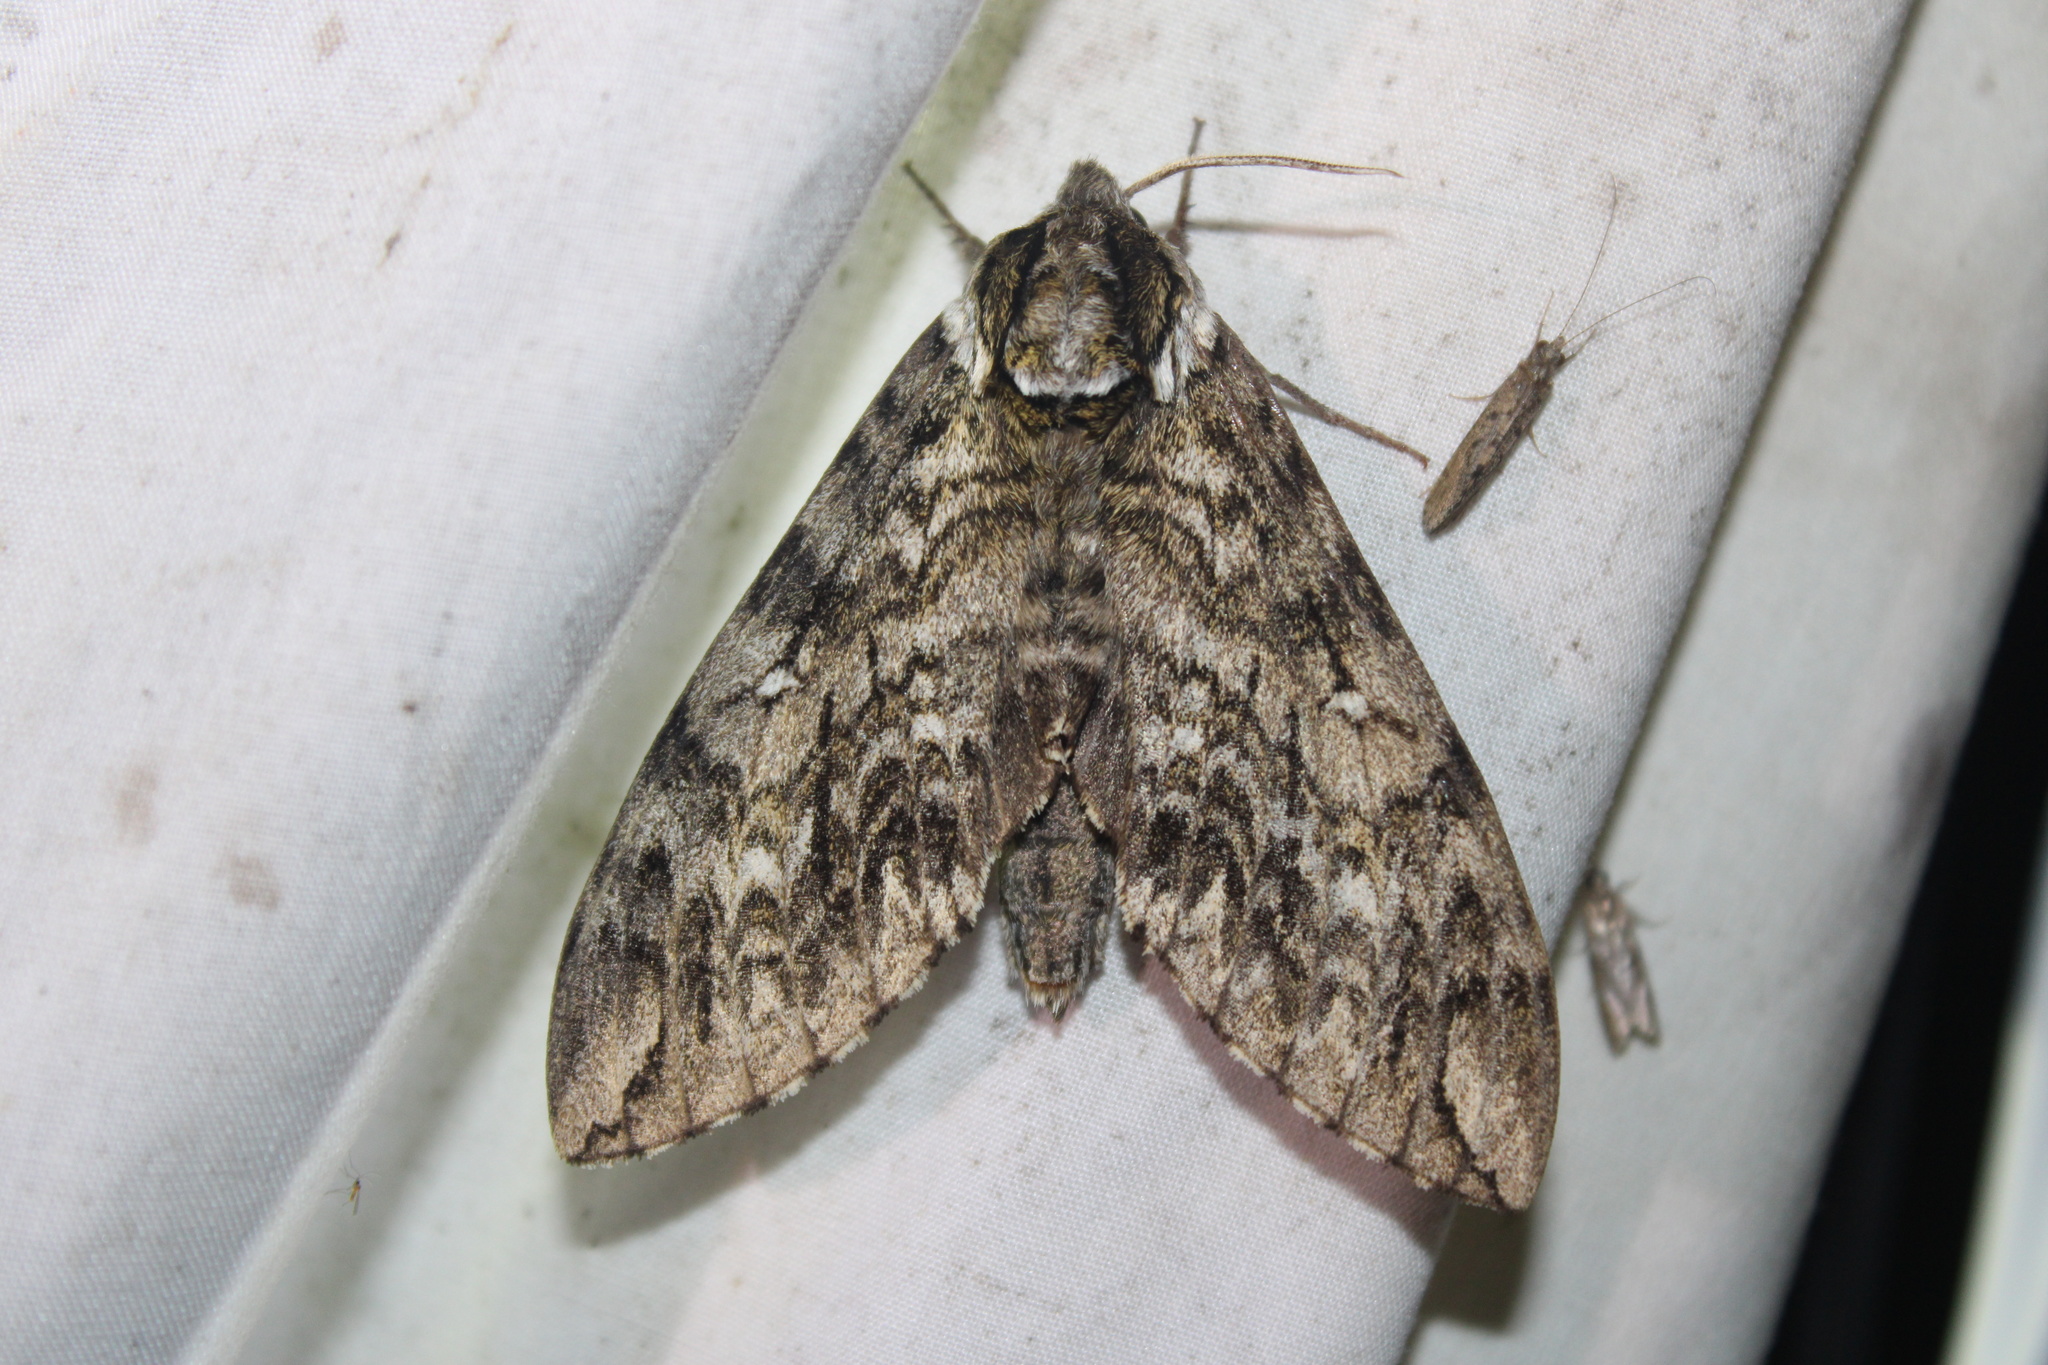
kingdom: Animalia
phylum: Arthropoda
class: Insecta
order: Lepidoptera
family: Sphingidae
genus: Ceratomia
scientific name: Ceratomia undulosa
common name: Waved sphinx
